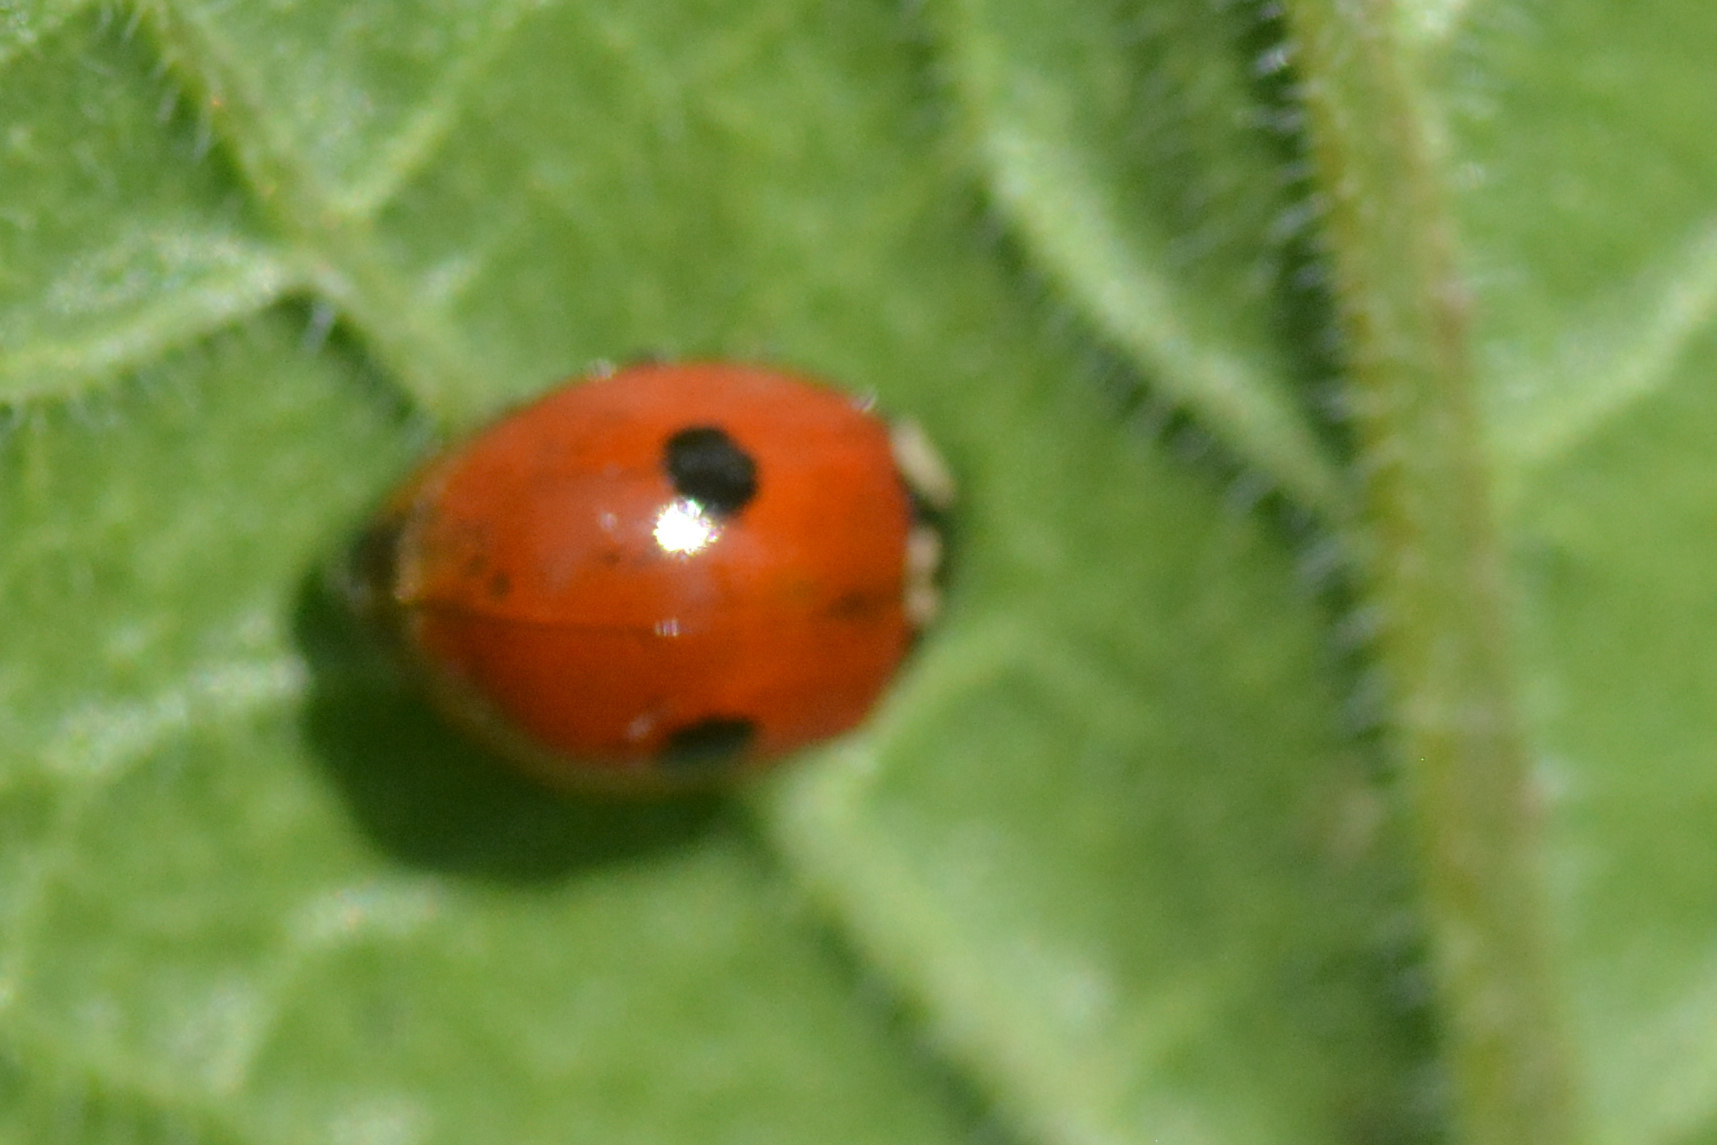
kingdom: Animalia
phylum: Arthropoda
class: Insecta
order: Coleoptera
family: Coccinellidae
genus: Adalia
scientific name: Adalia bipunctata
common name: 2-spot ladybird
